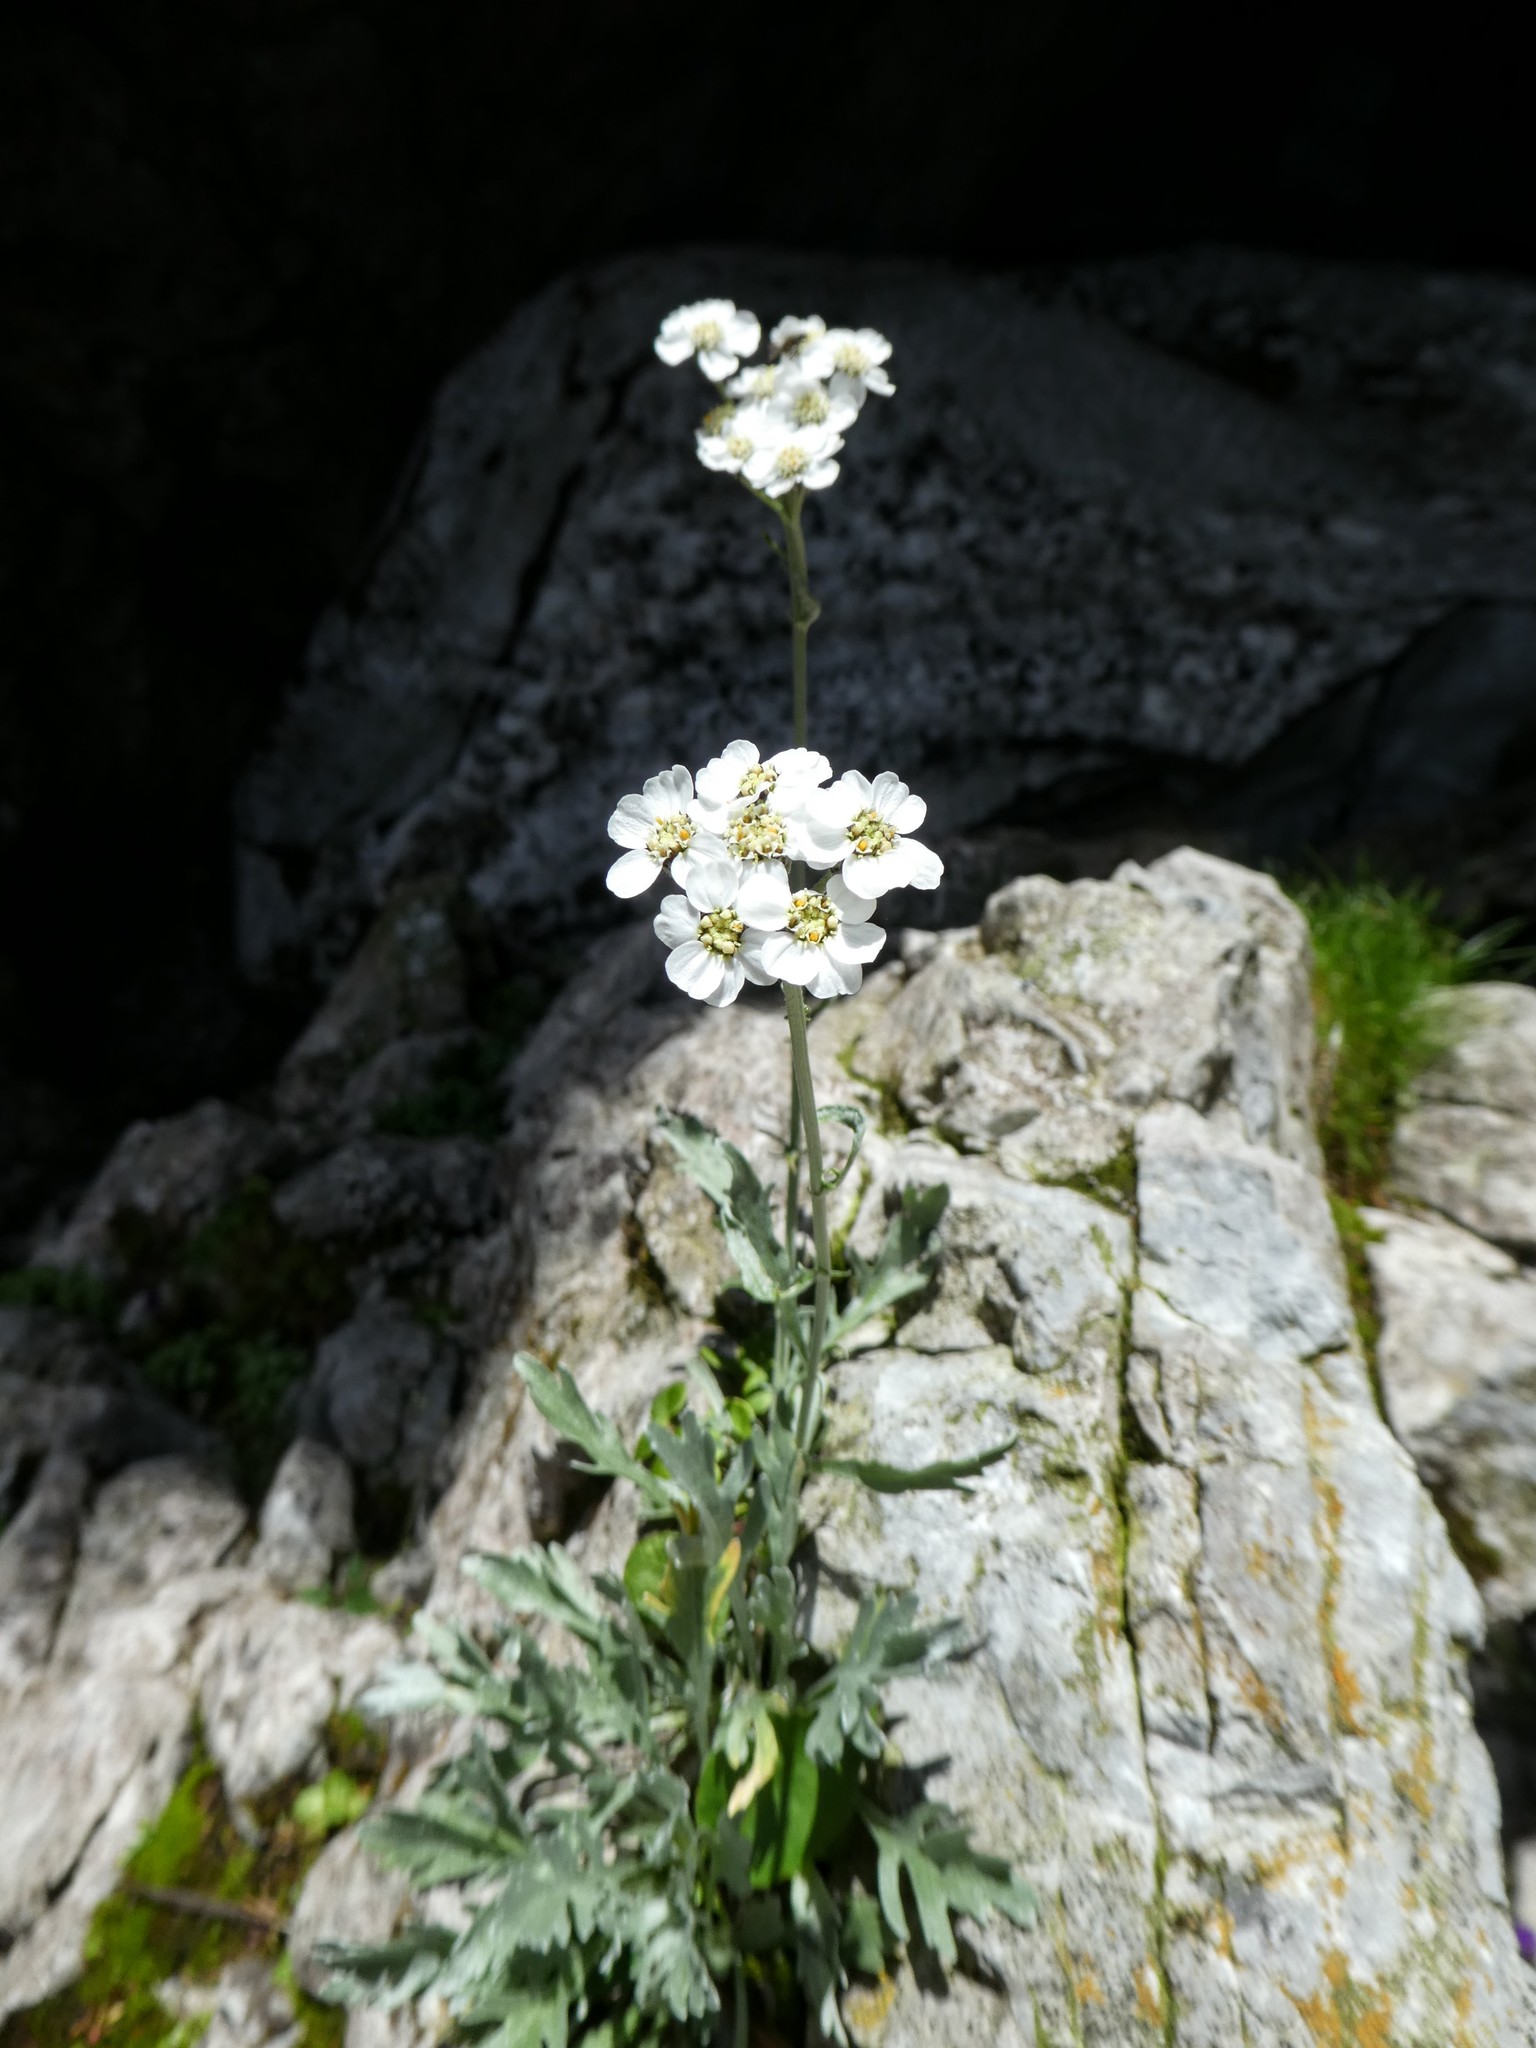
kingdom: Plantae
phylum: Tracheophyta
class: Magnoliopsida
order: Asterales
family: Asteraceae
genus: Achillea
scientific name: Achillea clavennae
